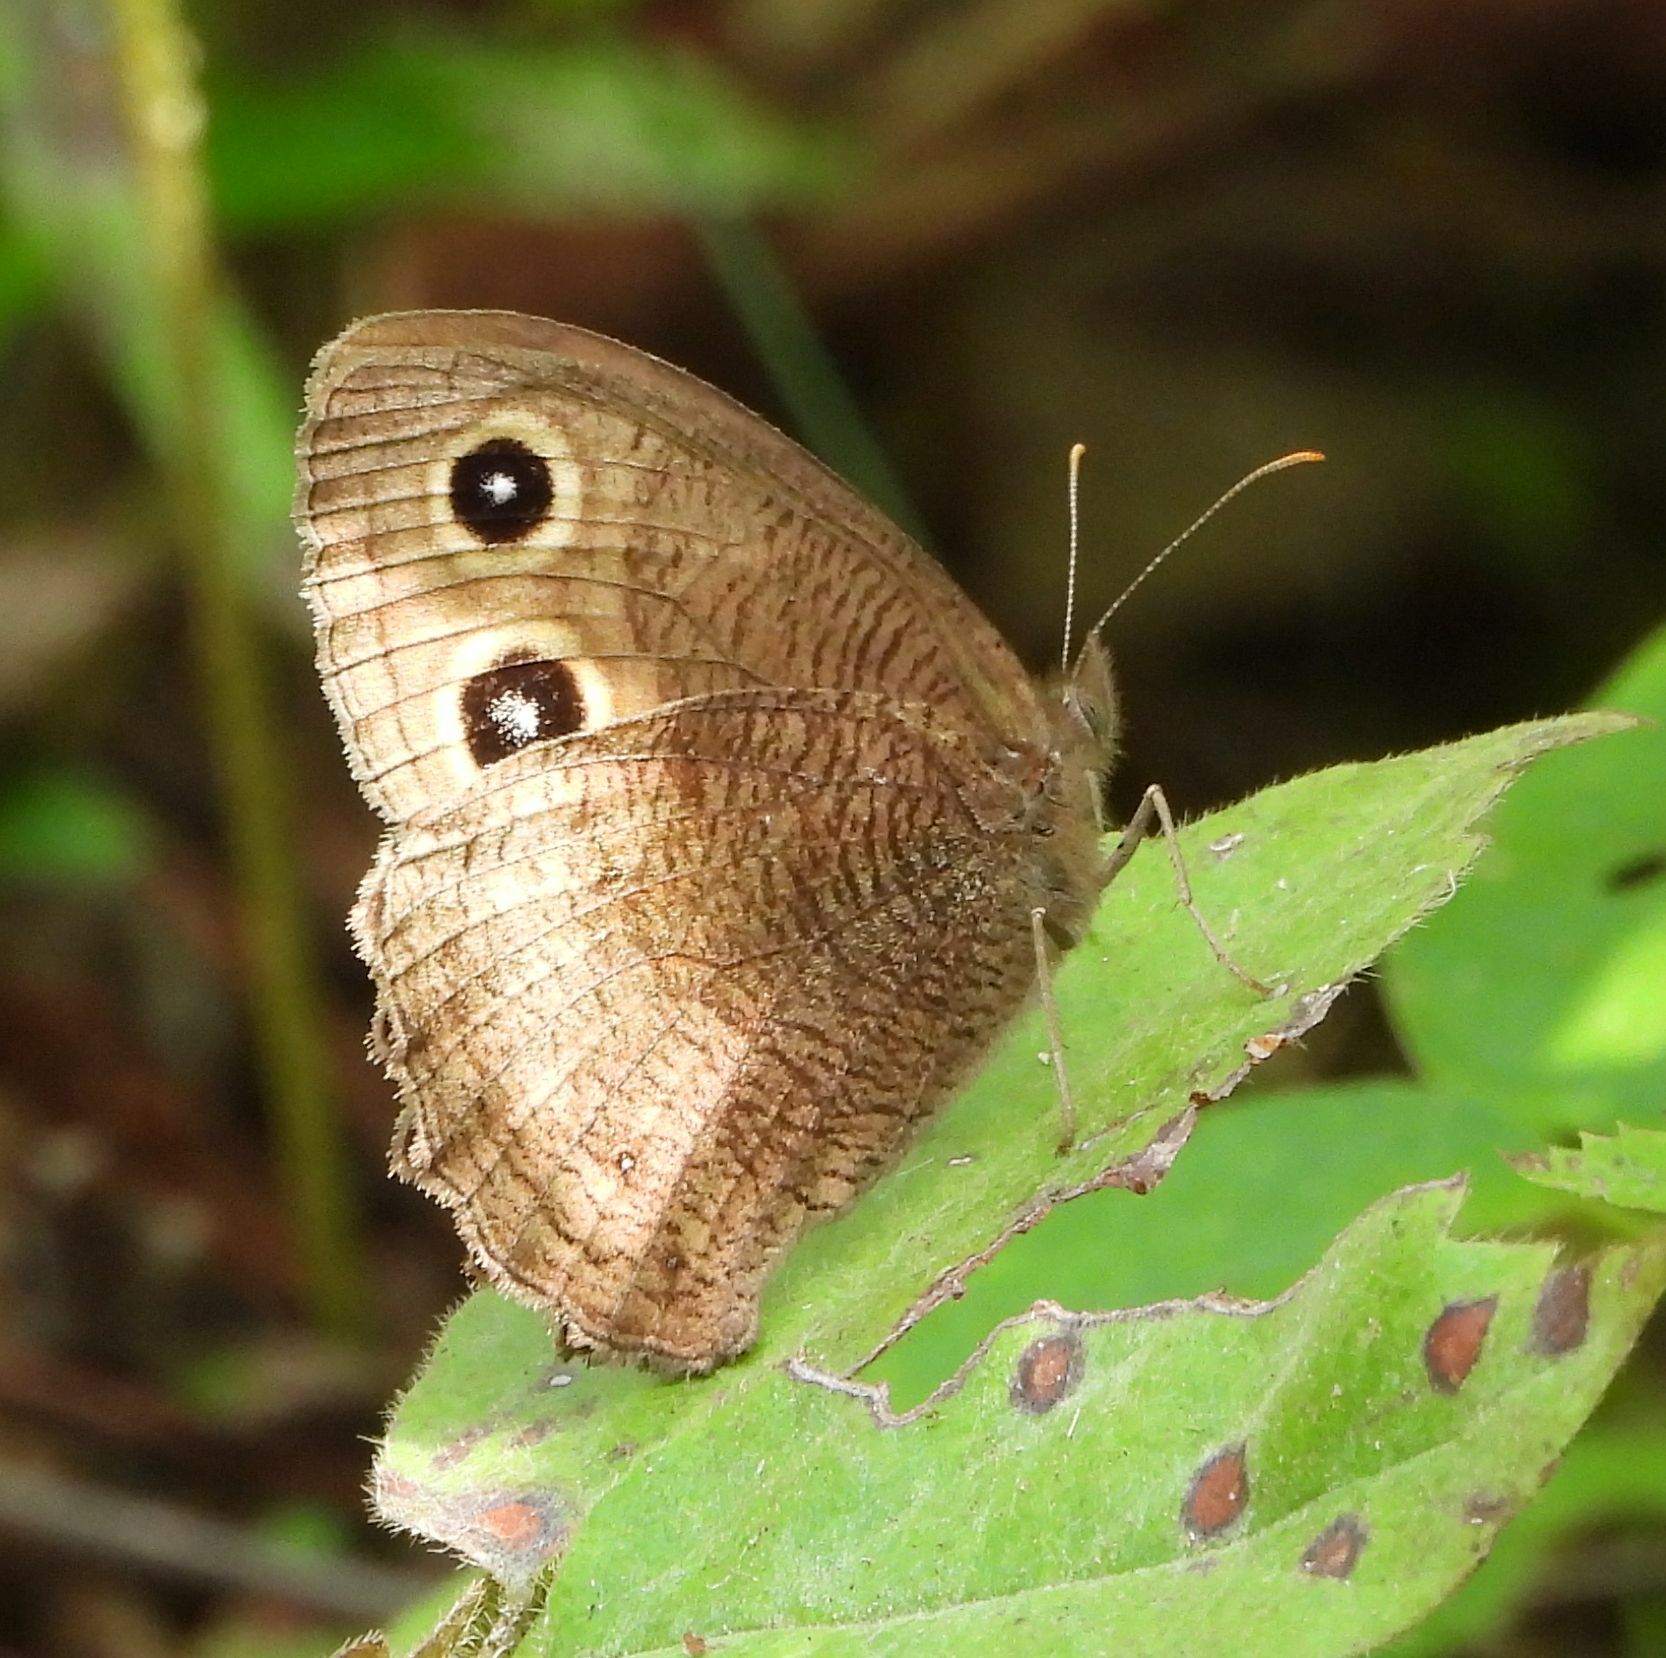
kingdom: Animalia
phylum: Arthropoda
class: Insecta
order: Lepidoptera
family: Nymphalidae
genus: Cercyonis
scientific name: Cercyonis pegala
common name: Common wood-nymph
